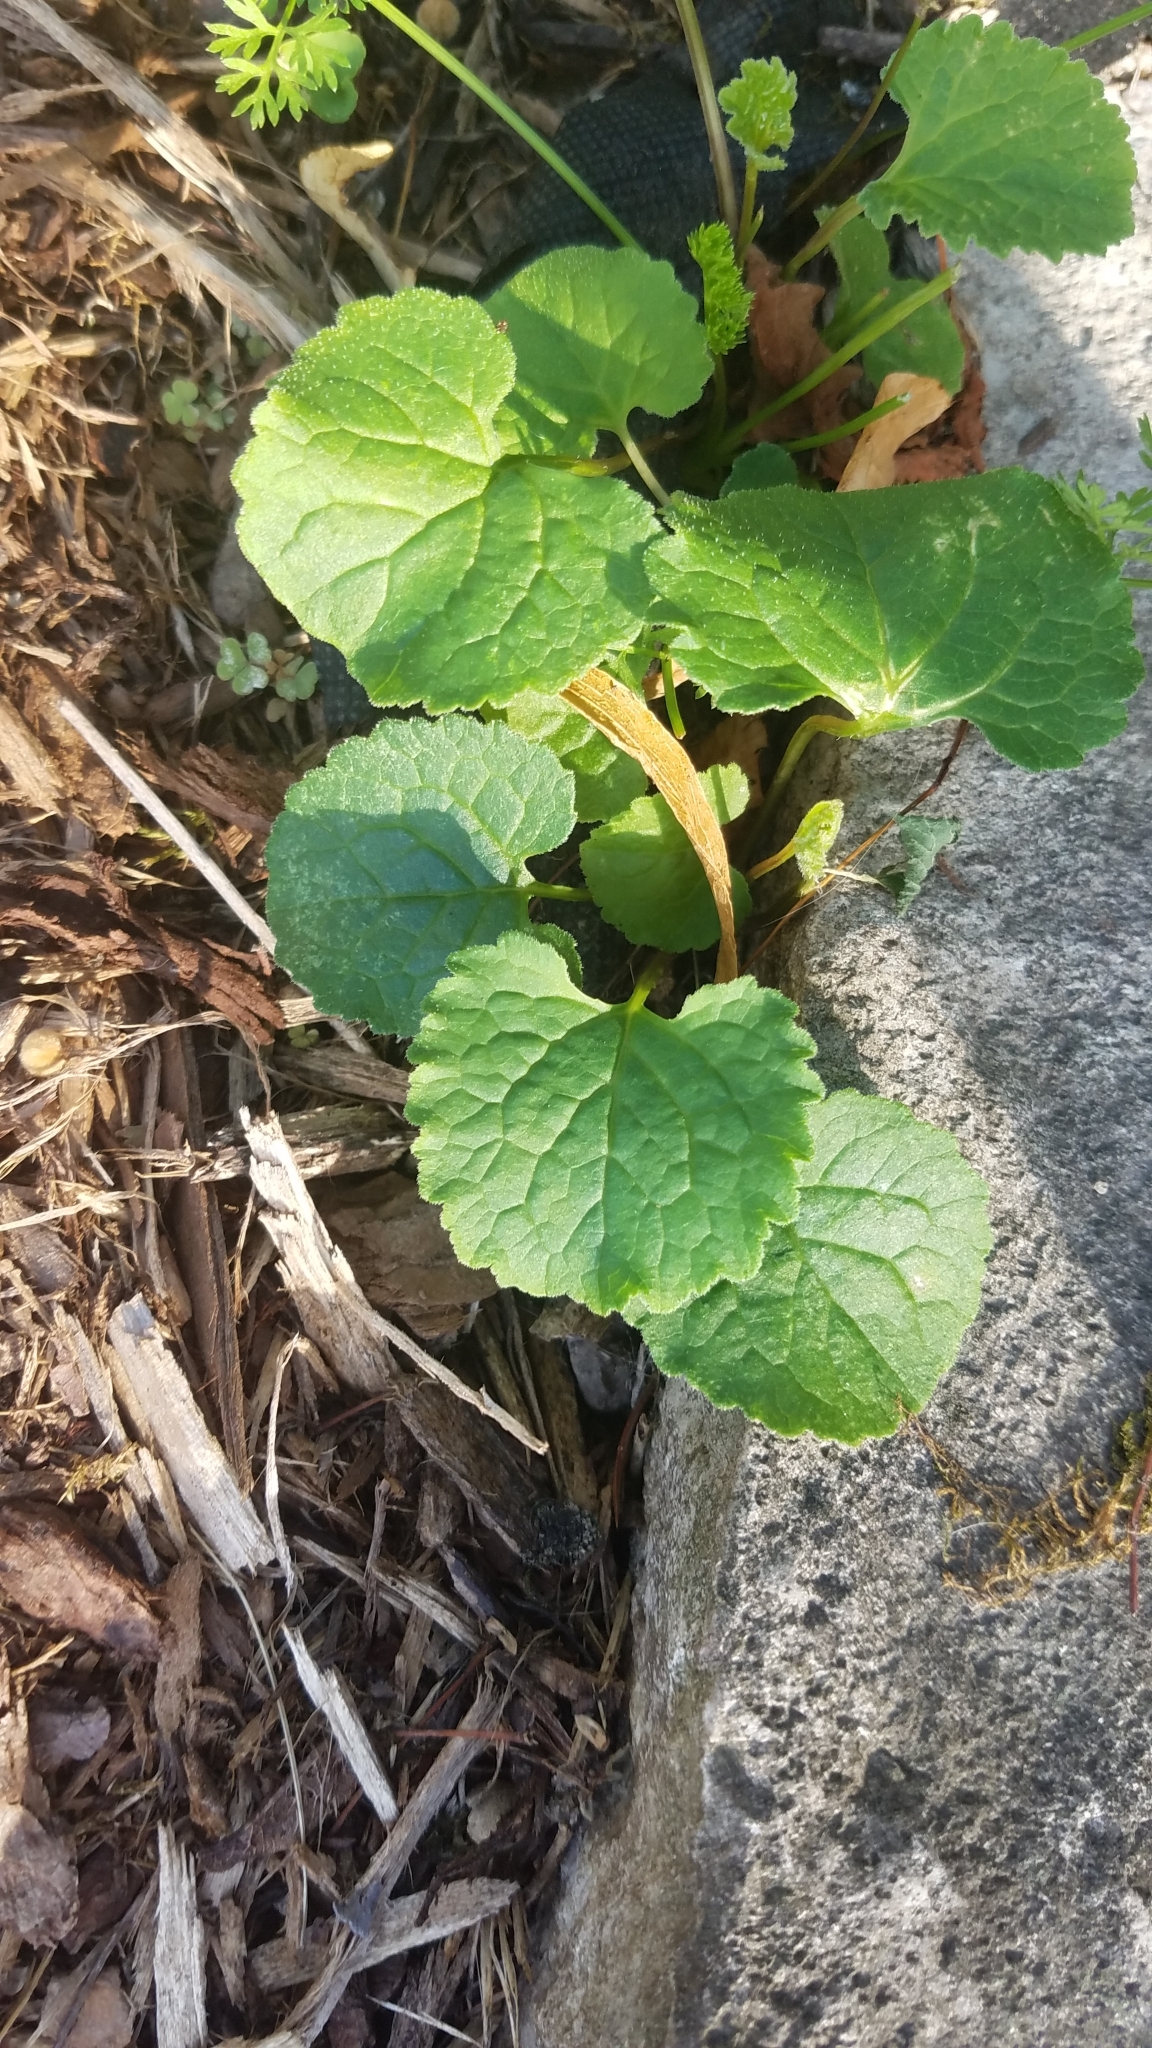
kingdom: Plantae
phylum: Tracheophyta
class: Magnoliopsida
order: Lamiales
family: Lamiaceae
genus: Glechoma
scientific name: Glechoma hederacea
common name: Ground ivy
